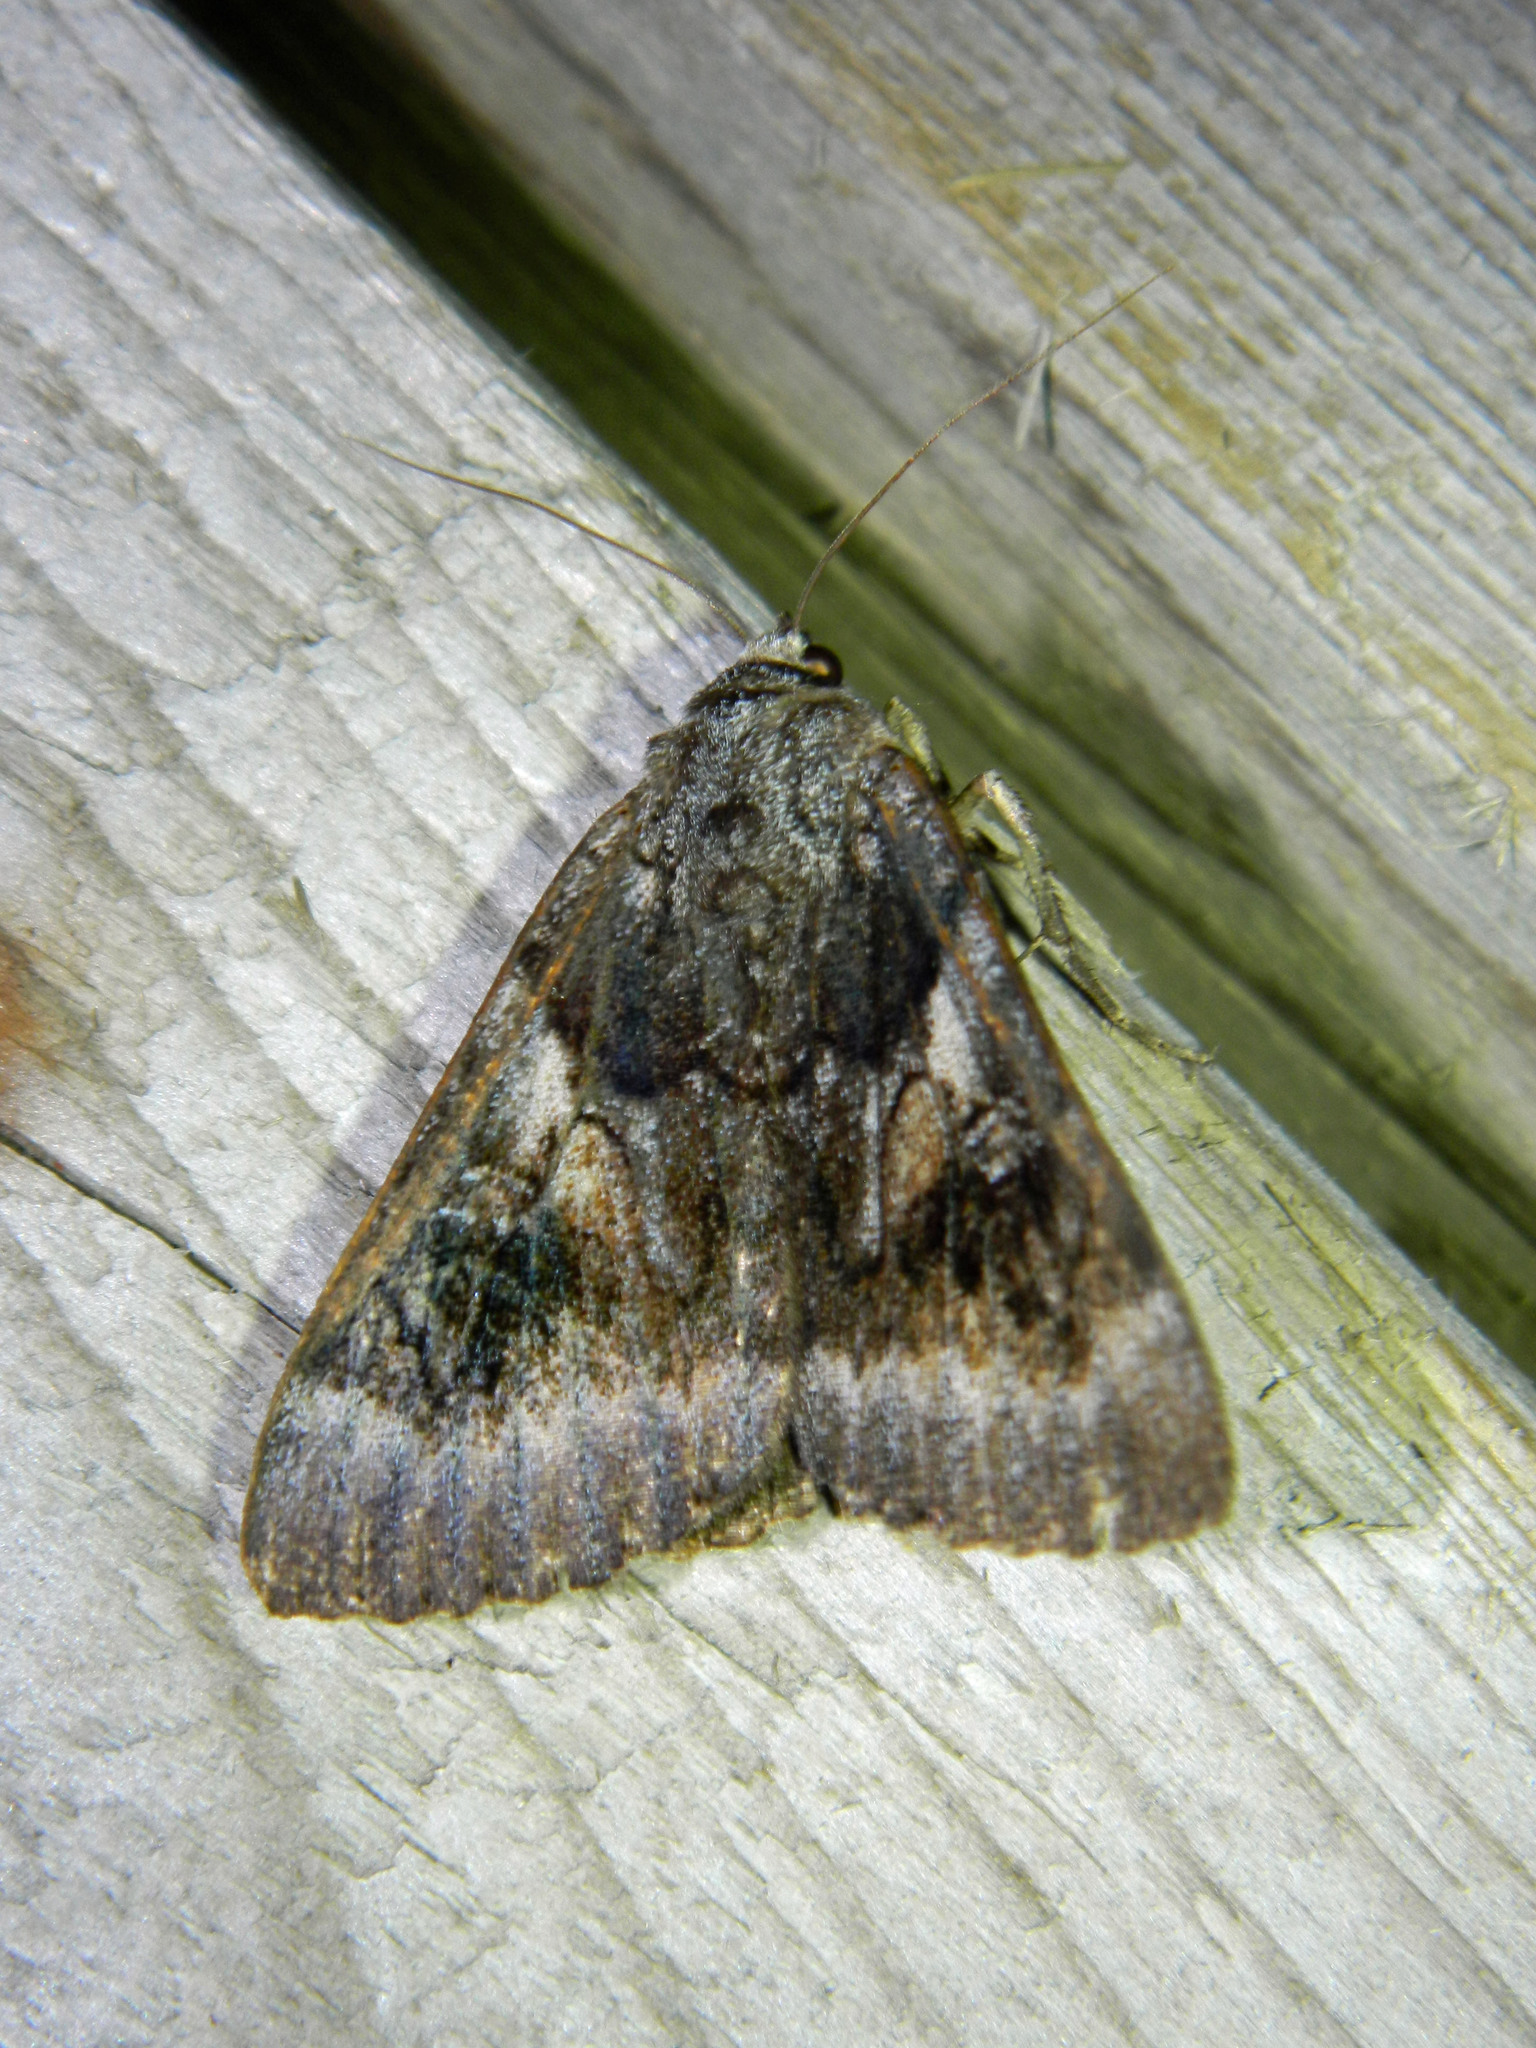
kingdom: Animalia
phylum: Arthropoda
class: Insecta
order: Lepidoptera
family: Erebidae
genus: Catocala
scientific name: Catocala badia
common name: Bay underwing
